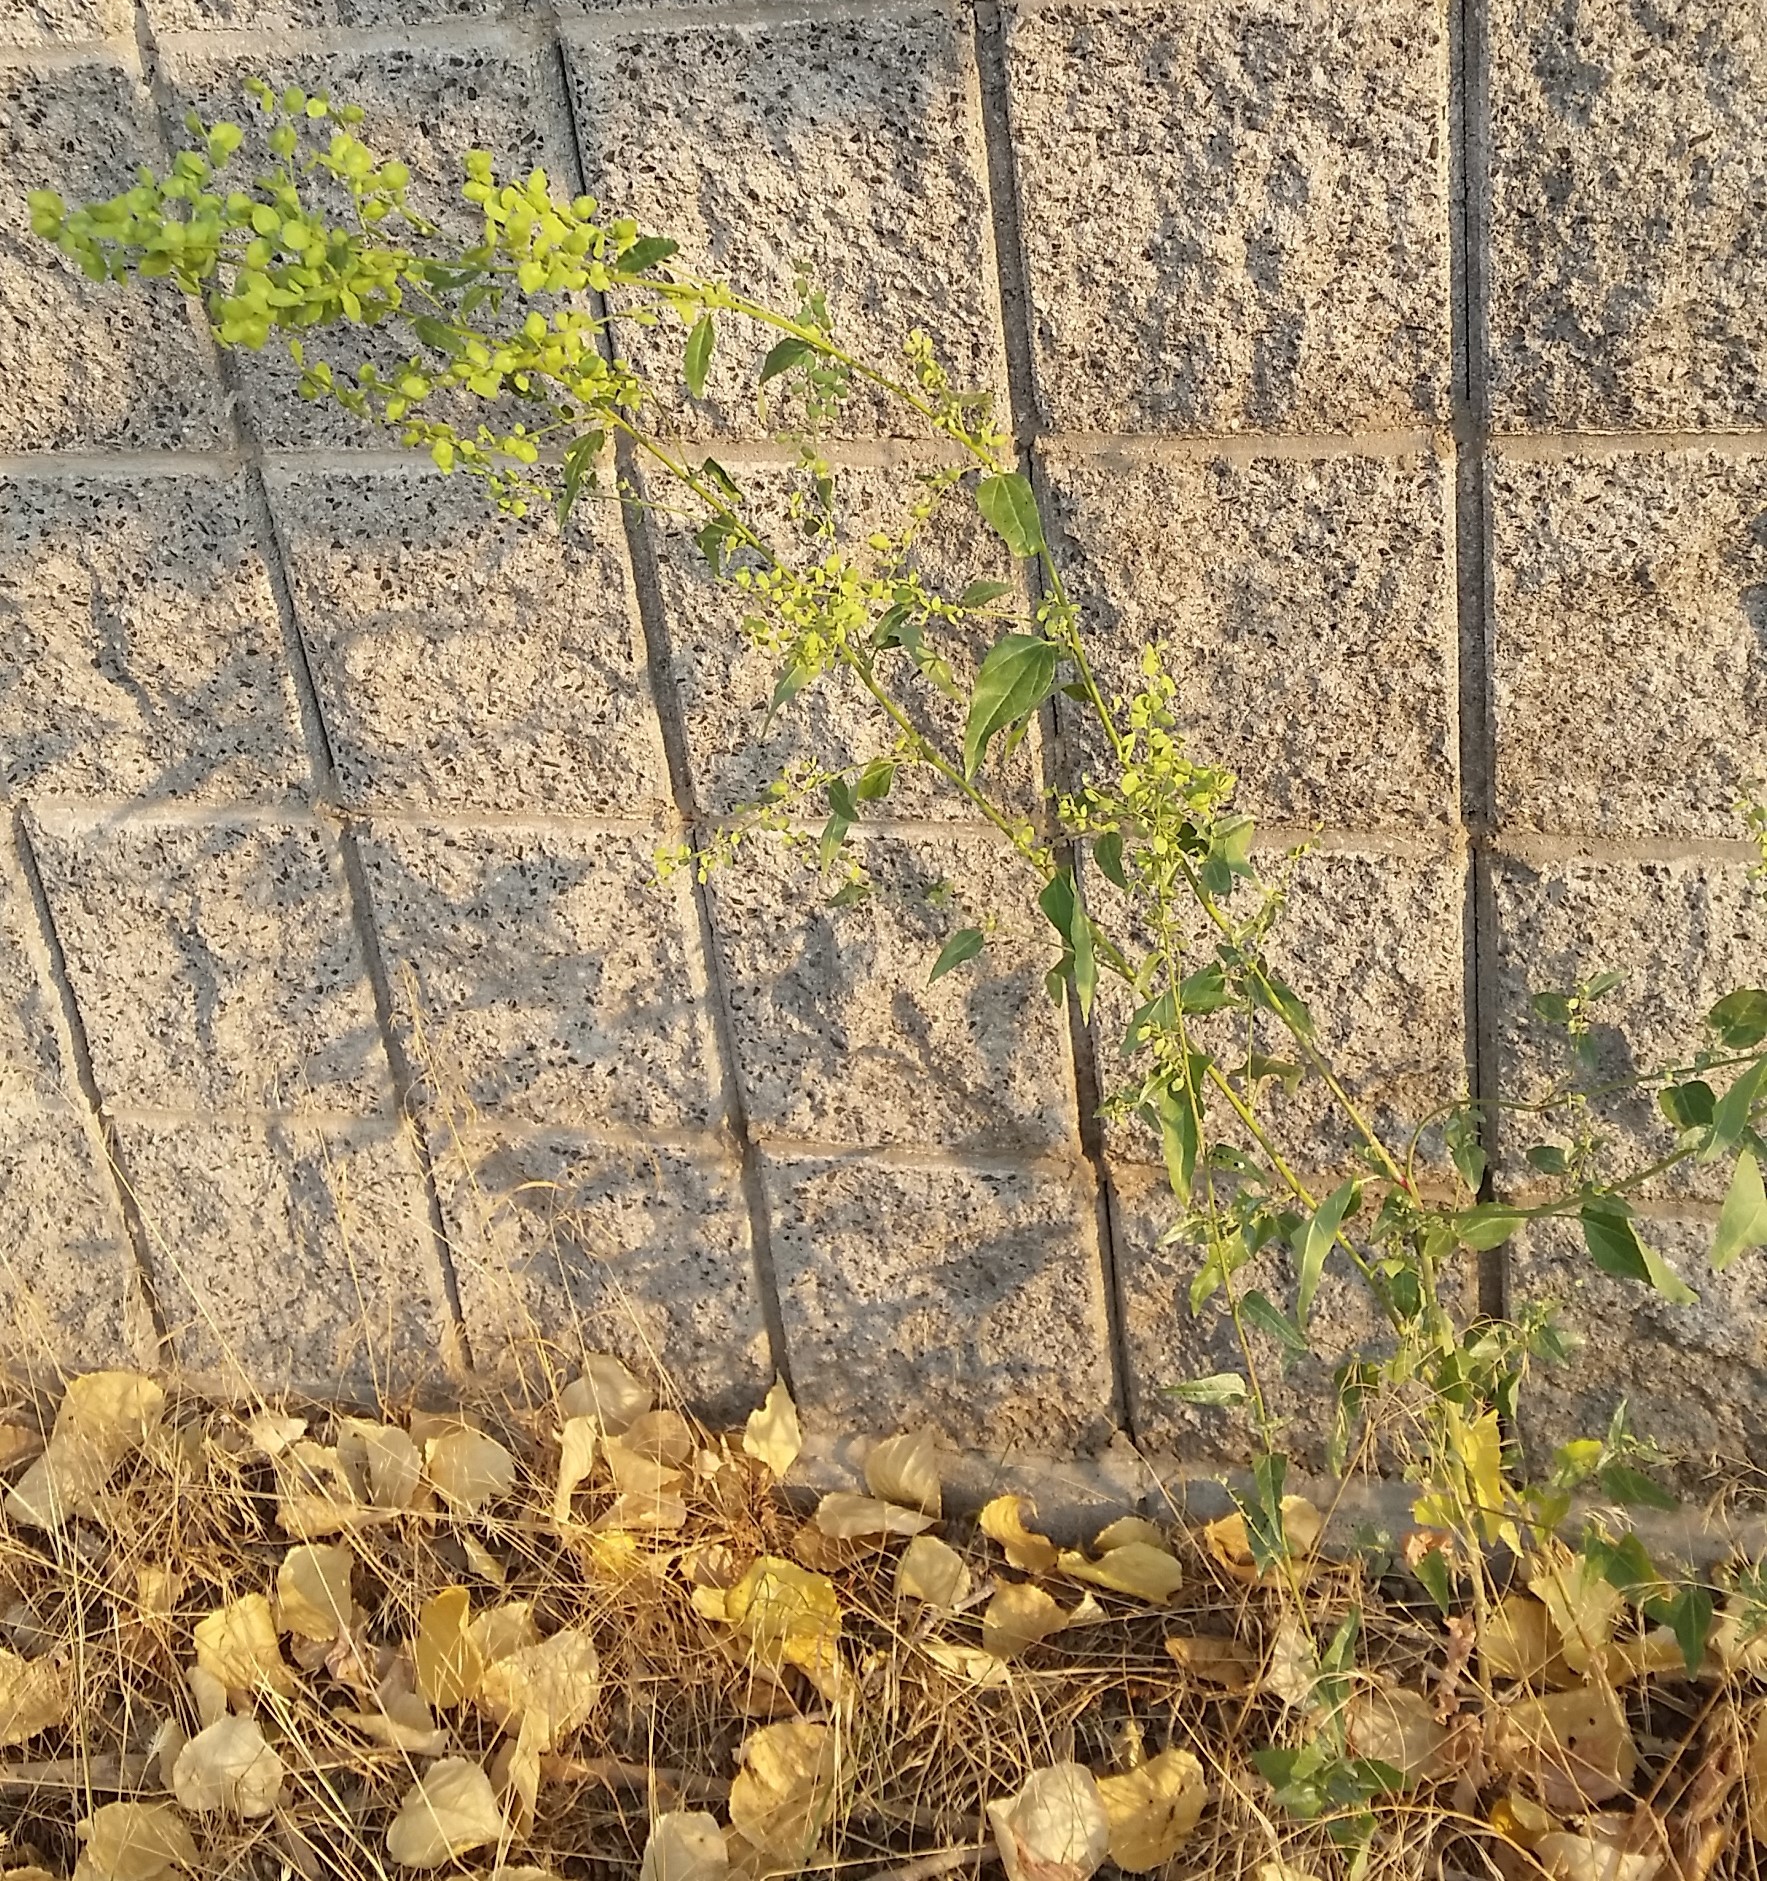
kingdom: Plantae
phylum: Tracheophyta
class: Magnoliopsida
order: Caryophyllales
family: Amaranthaceae
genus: Atriplex
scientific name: Atriplex micrantha
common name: Twoscale saltbush
